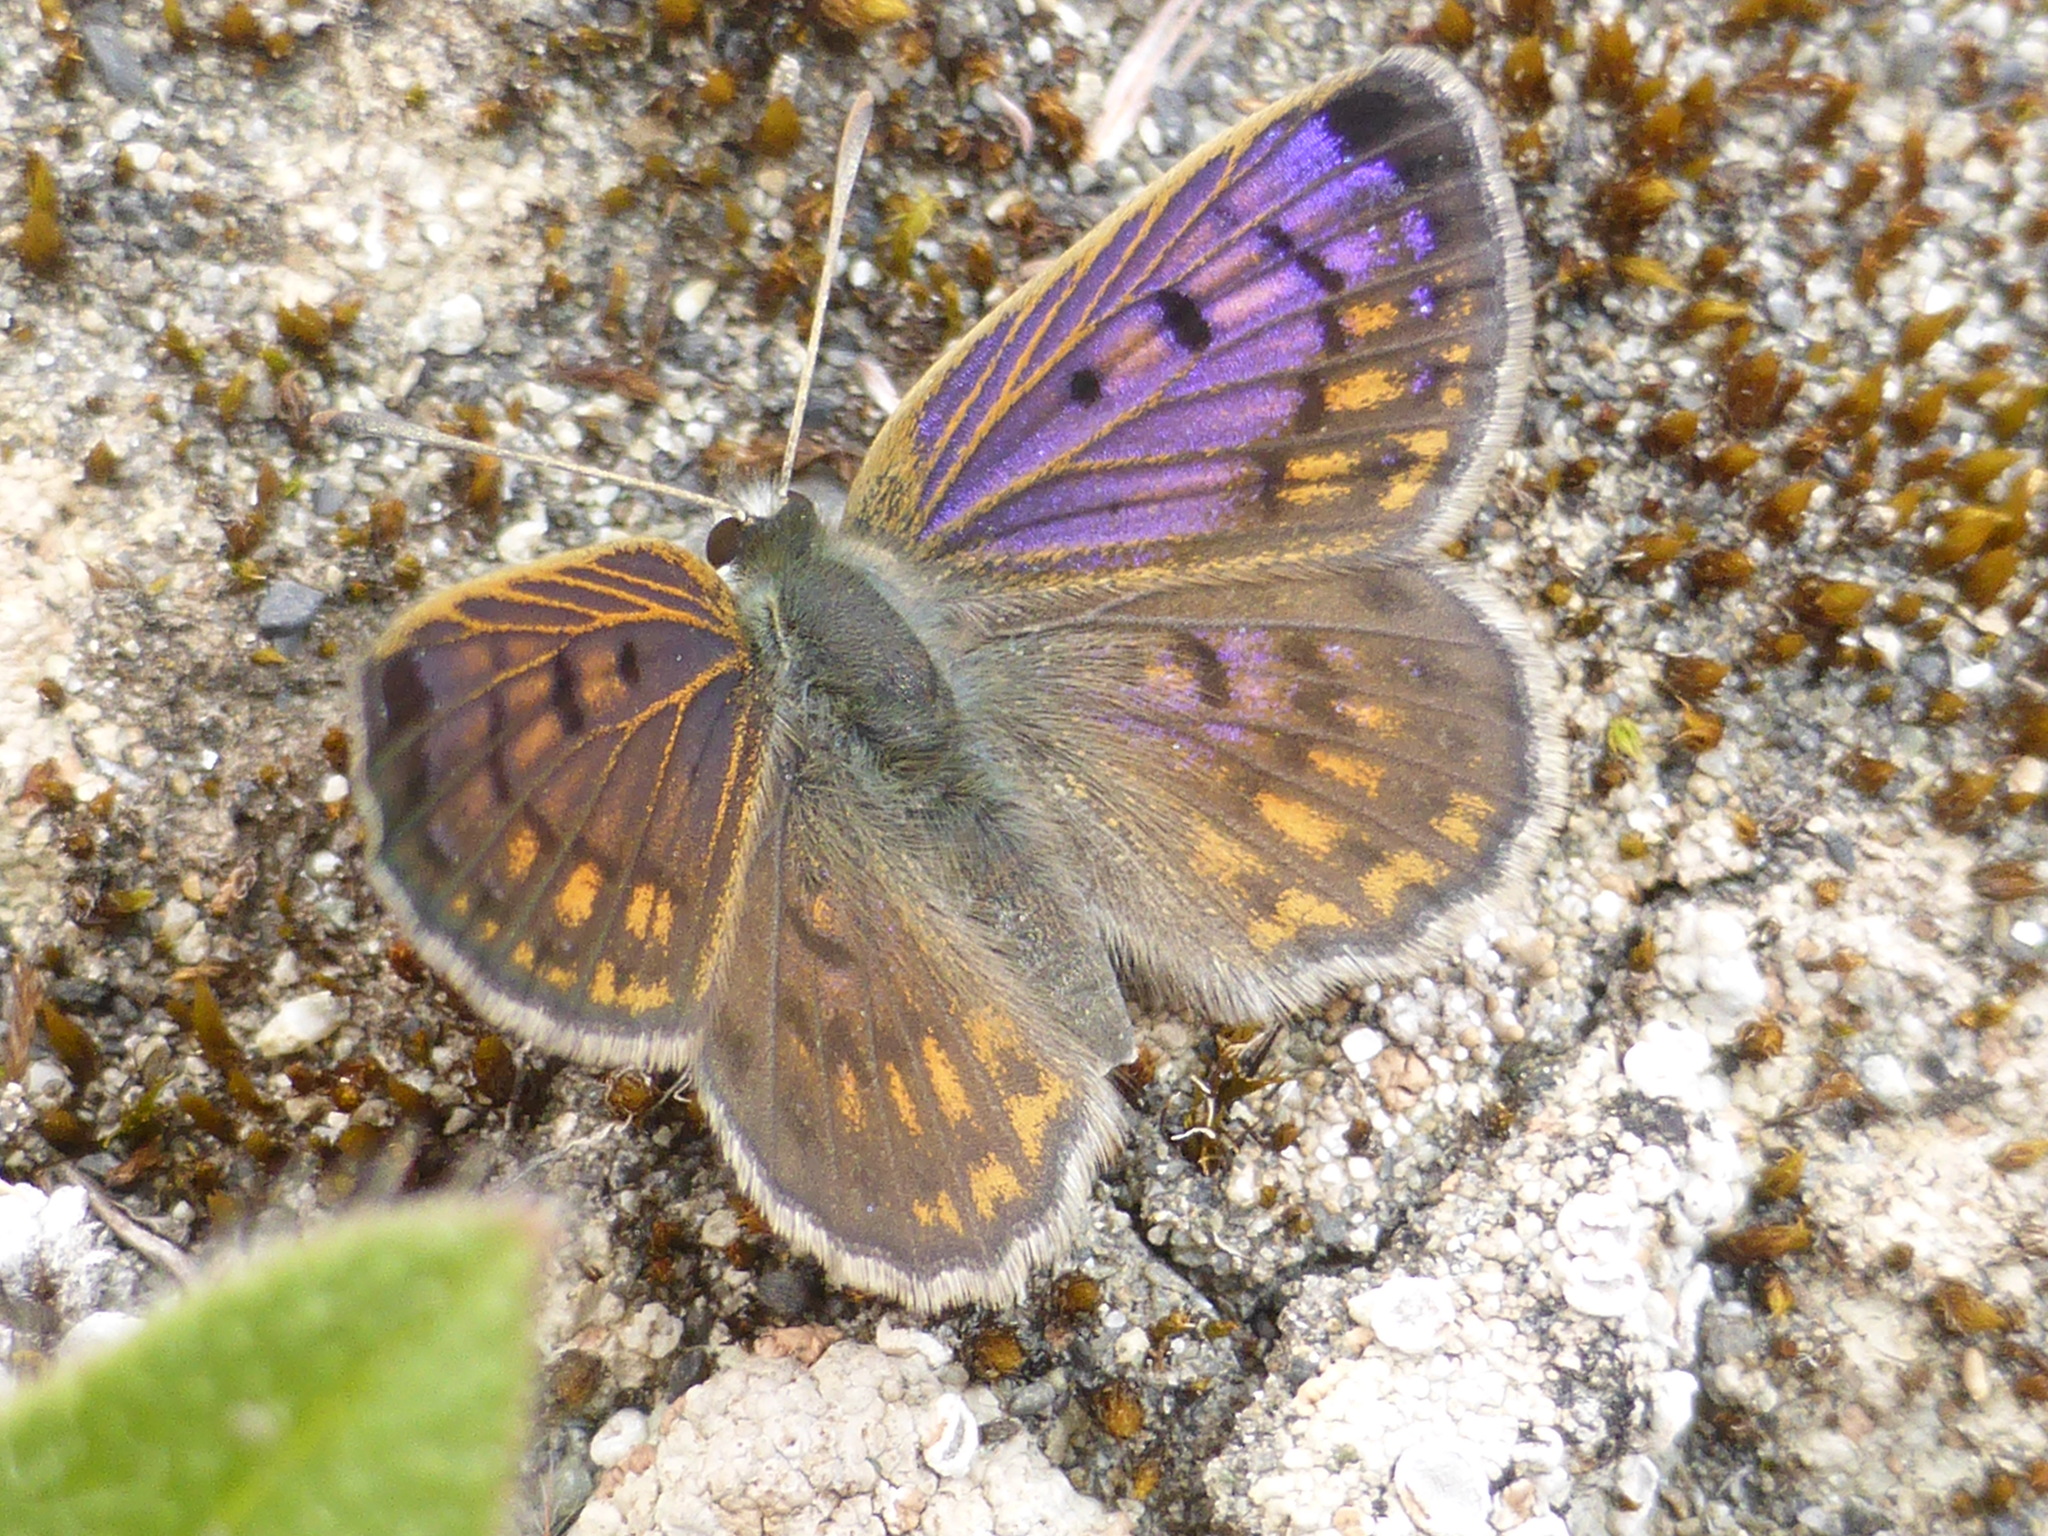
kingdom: Animalia
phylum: Arthropoda
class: Insecta
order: Lepidoptera
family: Lycaenidae
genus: Lycaena
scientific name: Lycaena tama
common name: Canterbury alpine boulder copper
